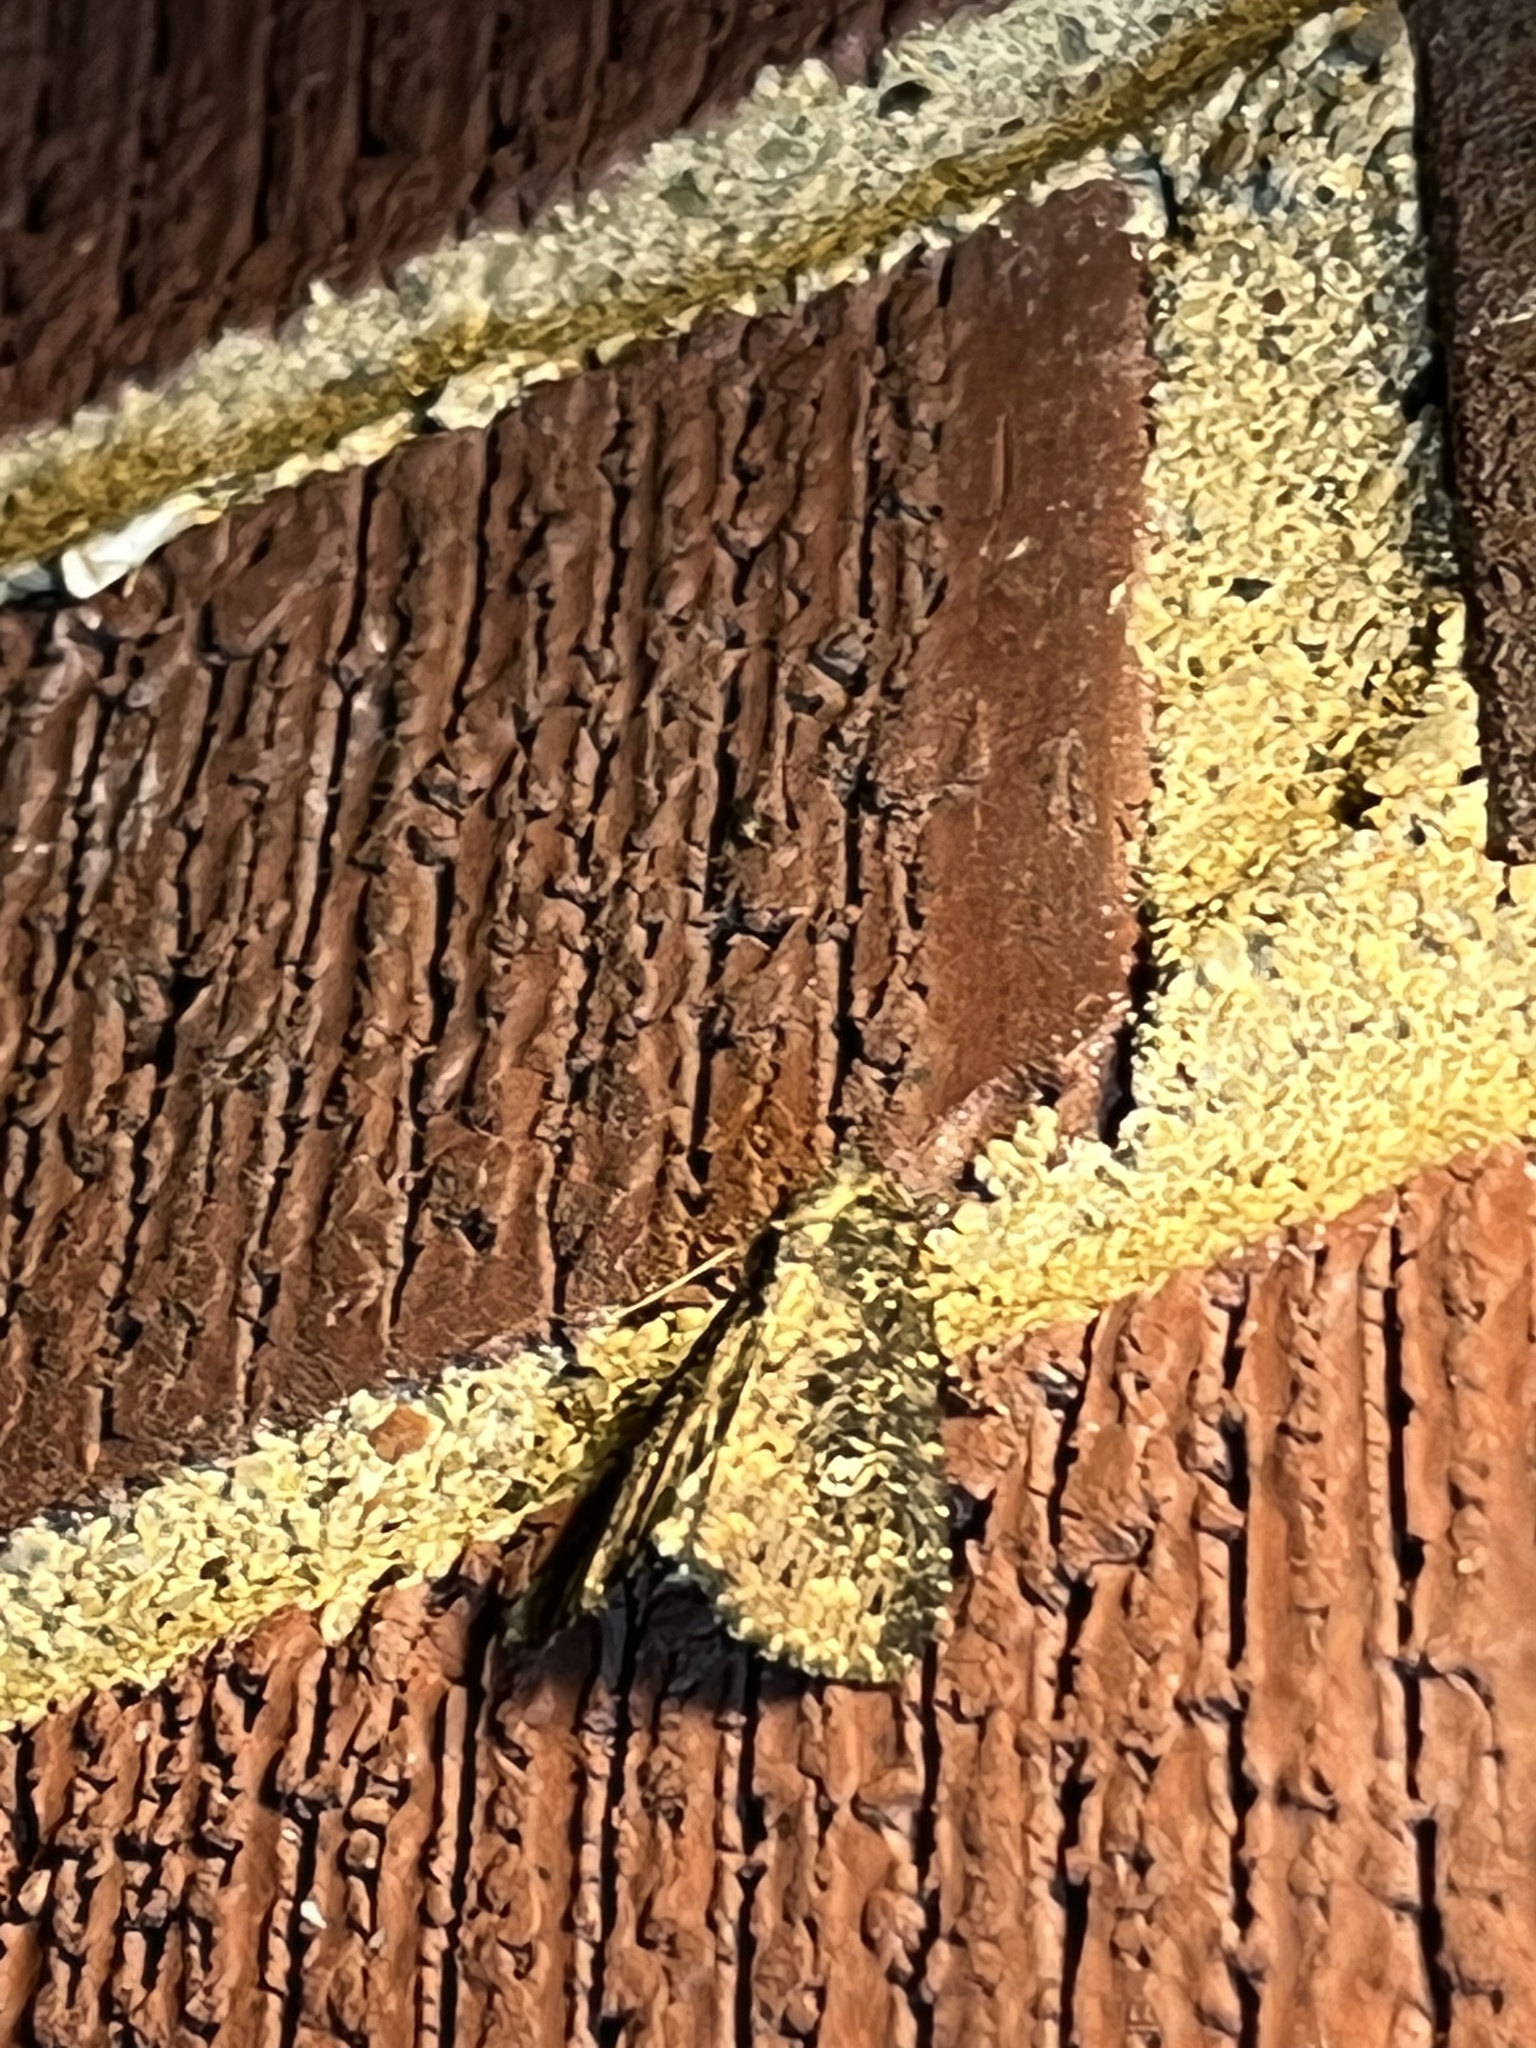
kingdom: Animalia
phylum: Arthropoda
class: Insecta
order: Lepidoptera
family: Noctuidae
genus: Condica
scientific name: Condica vecors
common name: Dusky groundling
